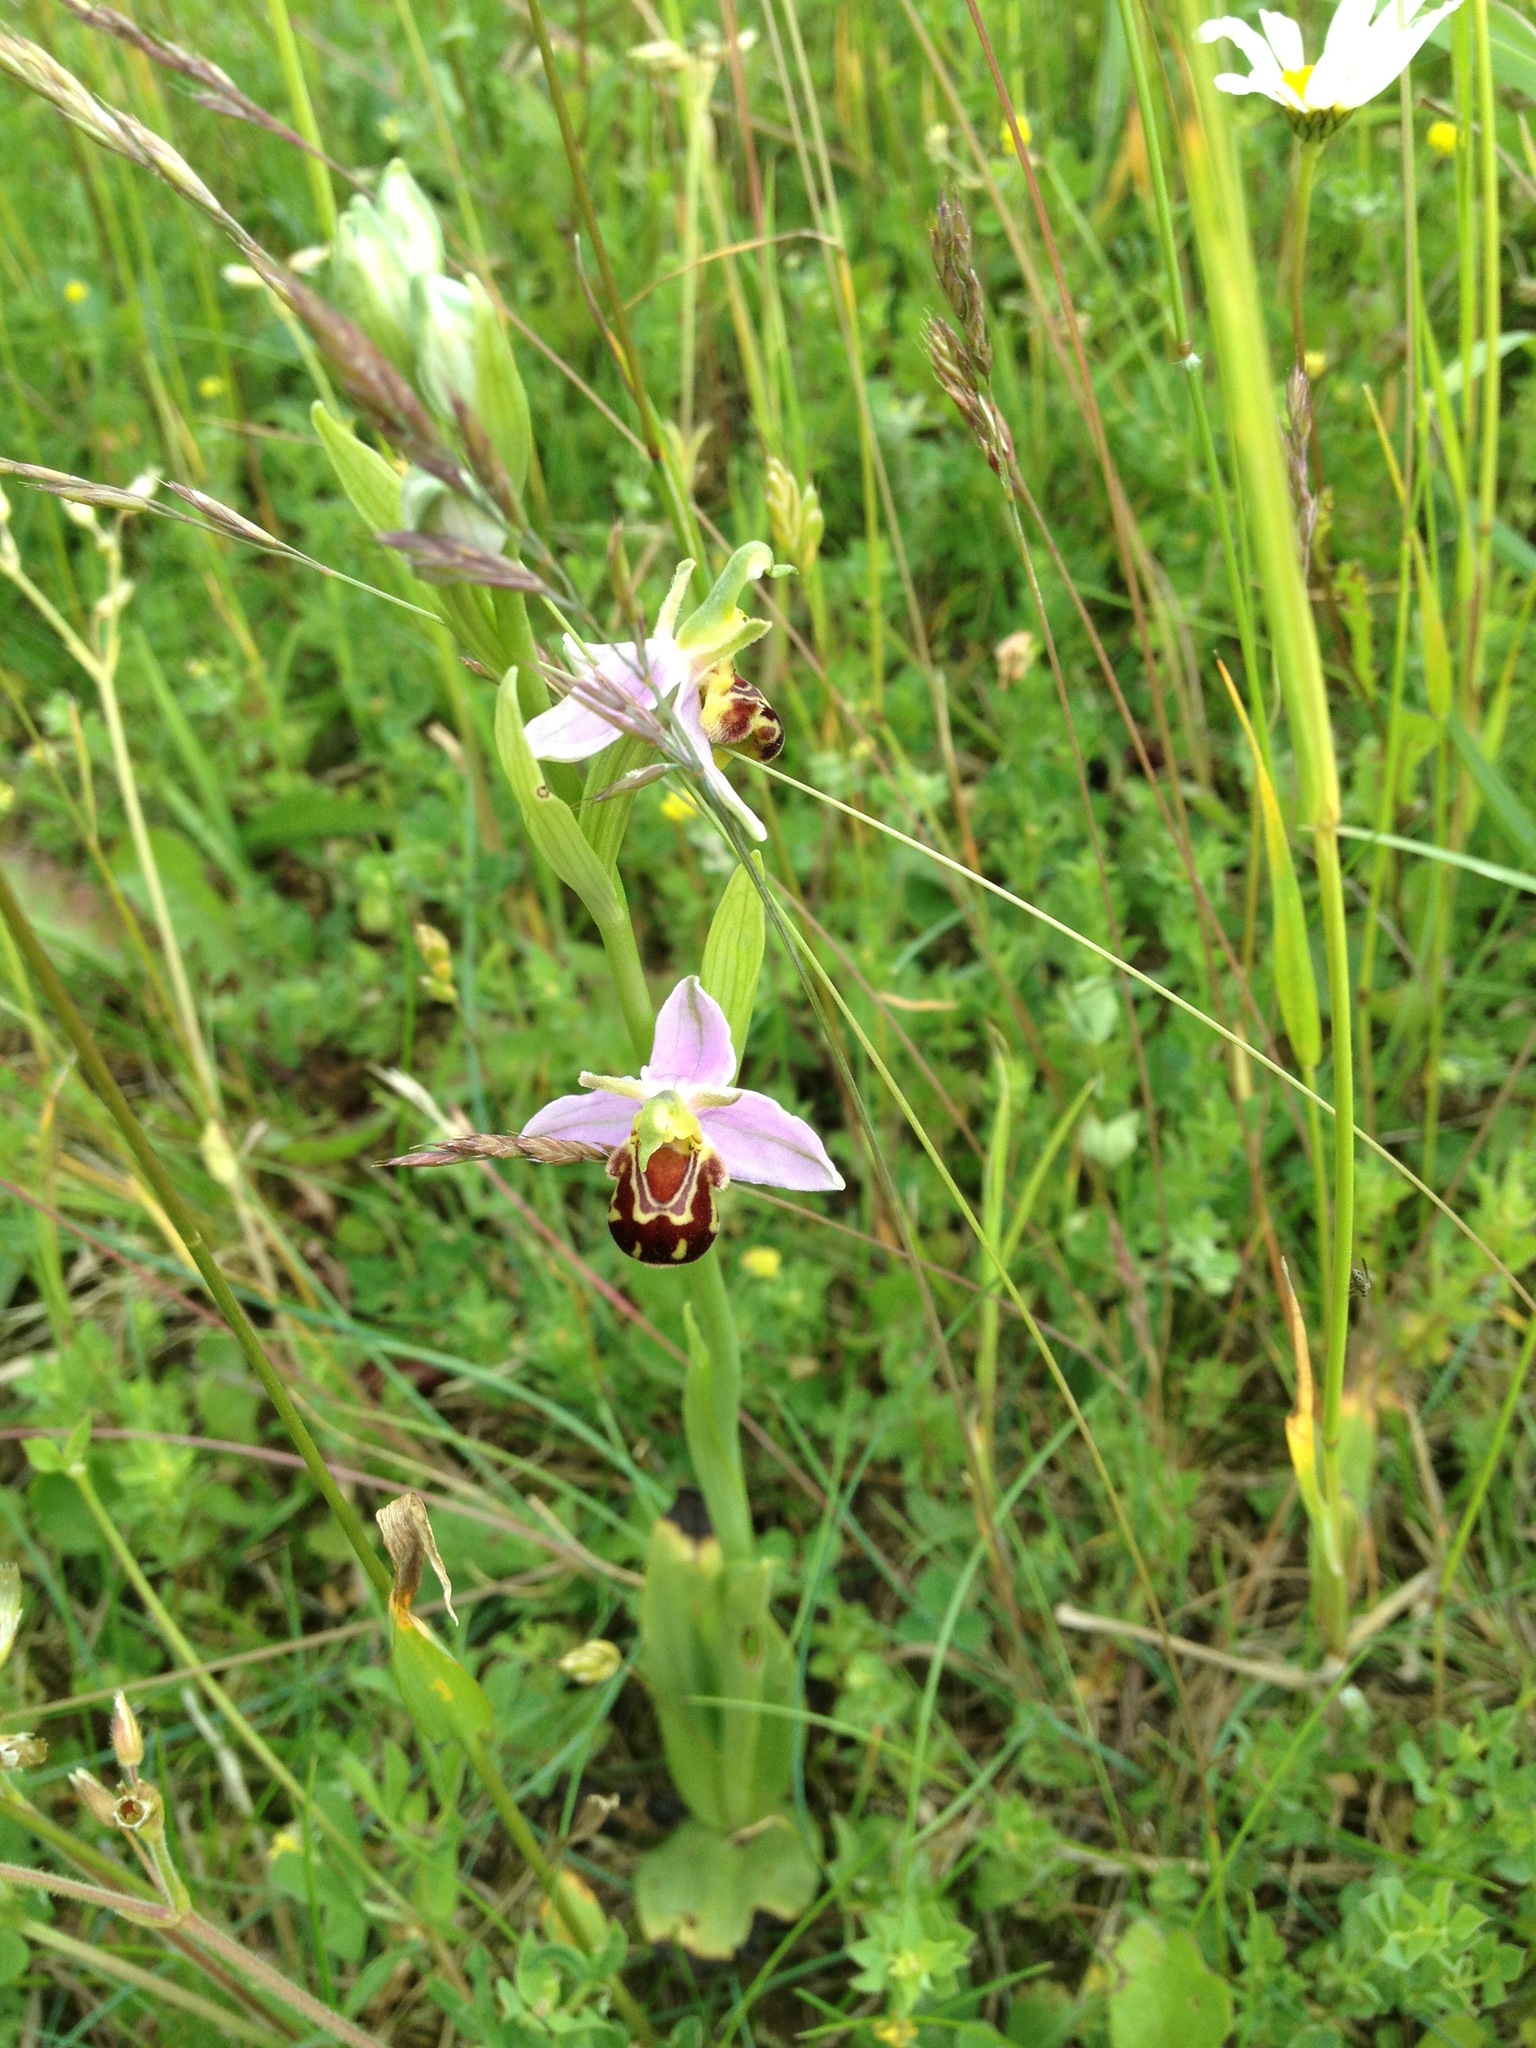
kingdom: Plantae
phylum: Tracheophyta
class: Liliopsida
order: Asparagales
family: Orchidaceae
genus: Ophrys
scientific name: Ophrys apifera
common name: Bee orchid
